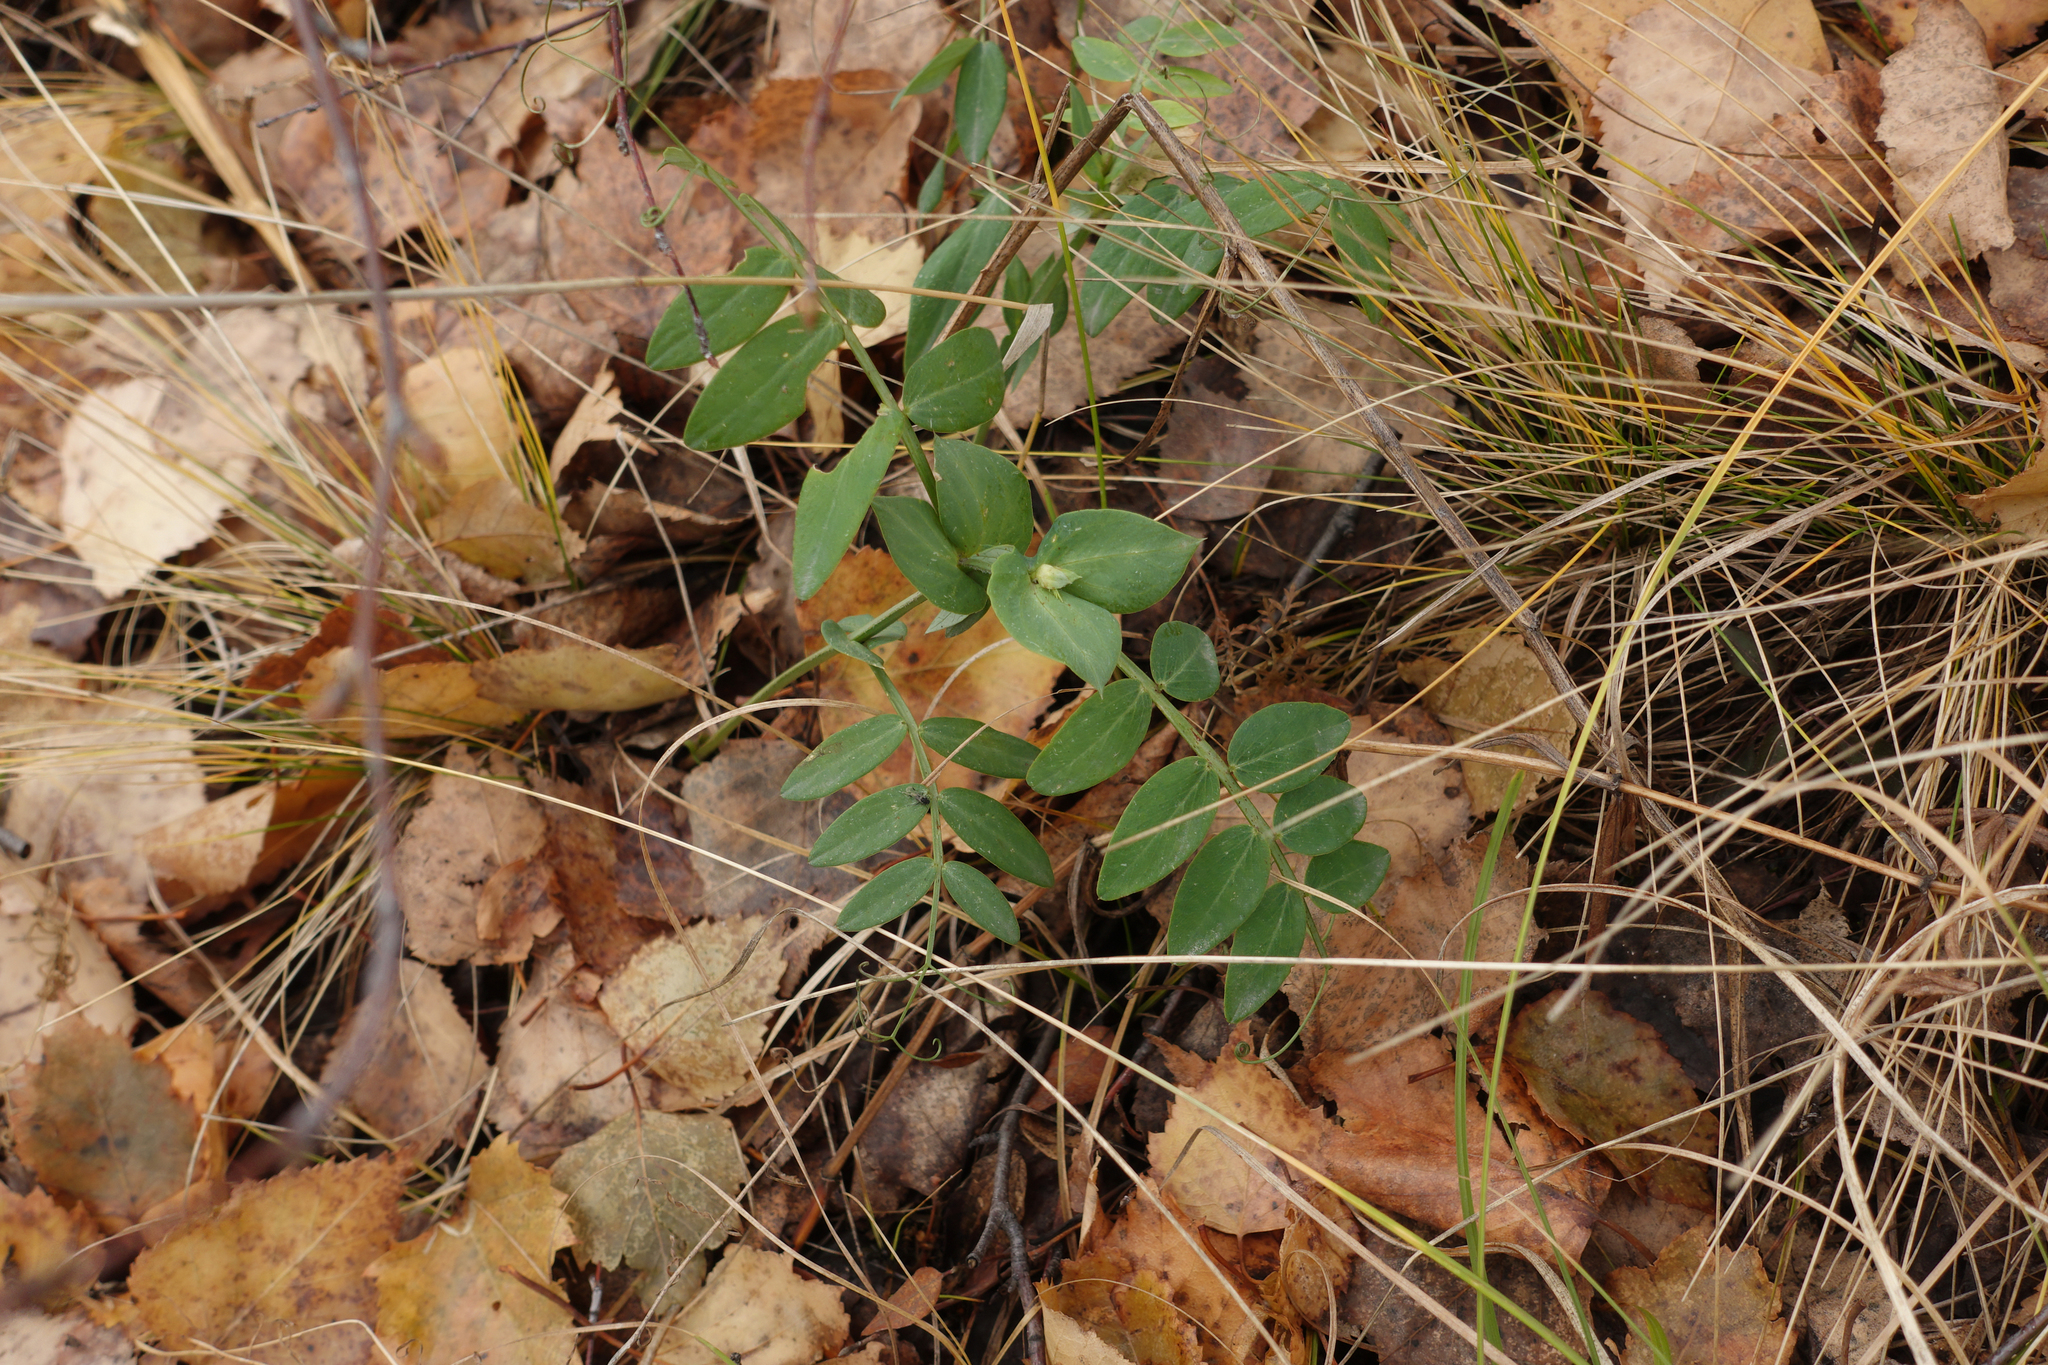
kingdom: Plantae
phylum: Tracheophyta
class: Magnoliopsida
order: Fabales
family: Fabaceae
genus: Lathyrus
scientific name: Lathyrus pisiformis
